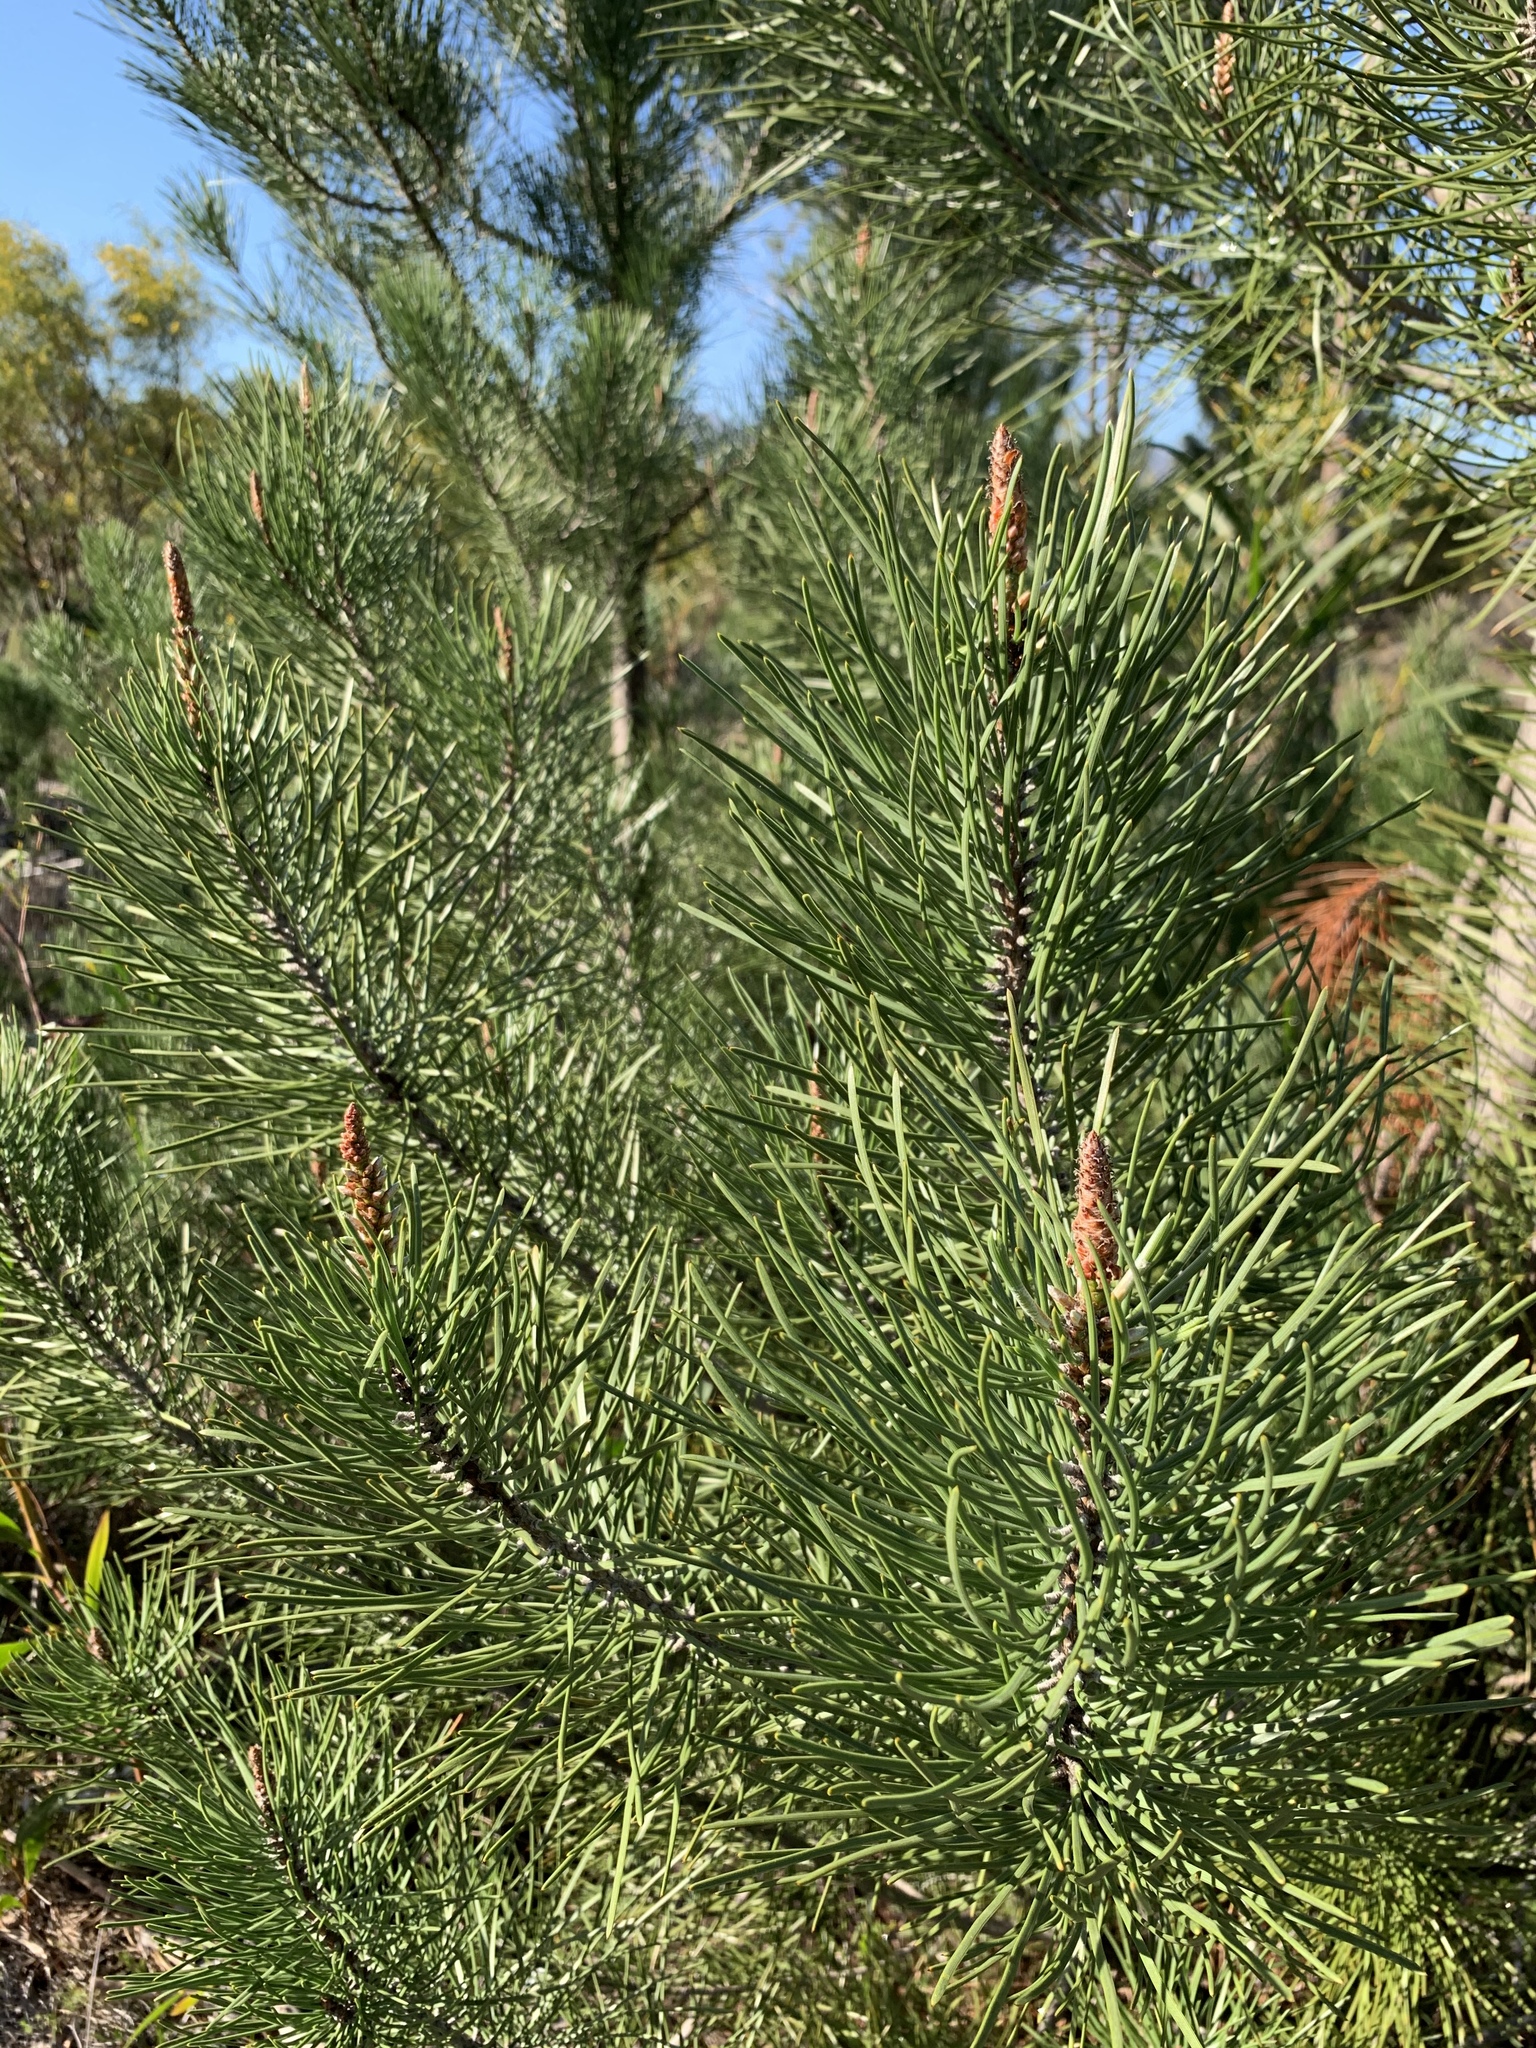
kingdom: Plantae
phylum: Tracheophyta
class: Pinopsida
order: Pinales
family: Pinaceae
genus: Pinus
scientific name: Pinus pinaster
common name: Maritime pine
